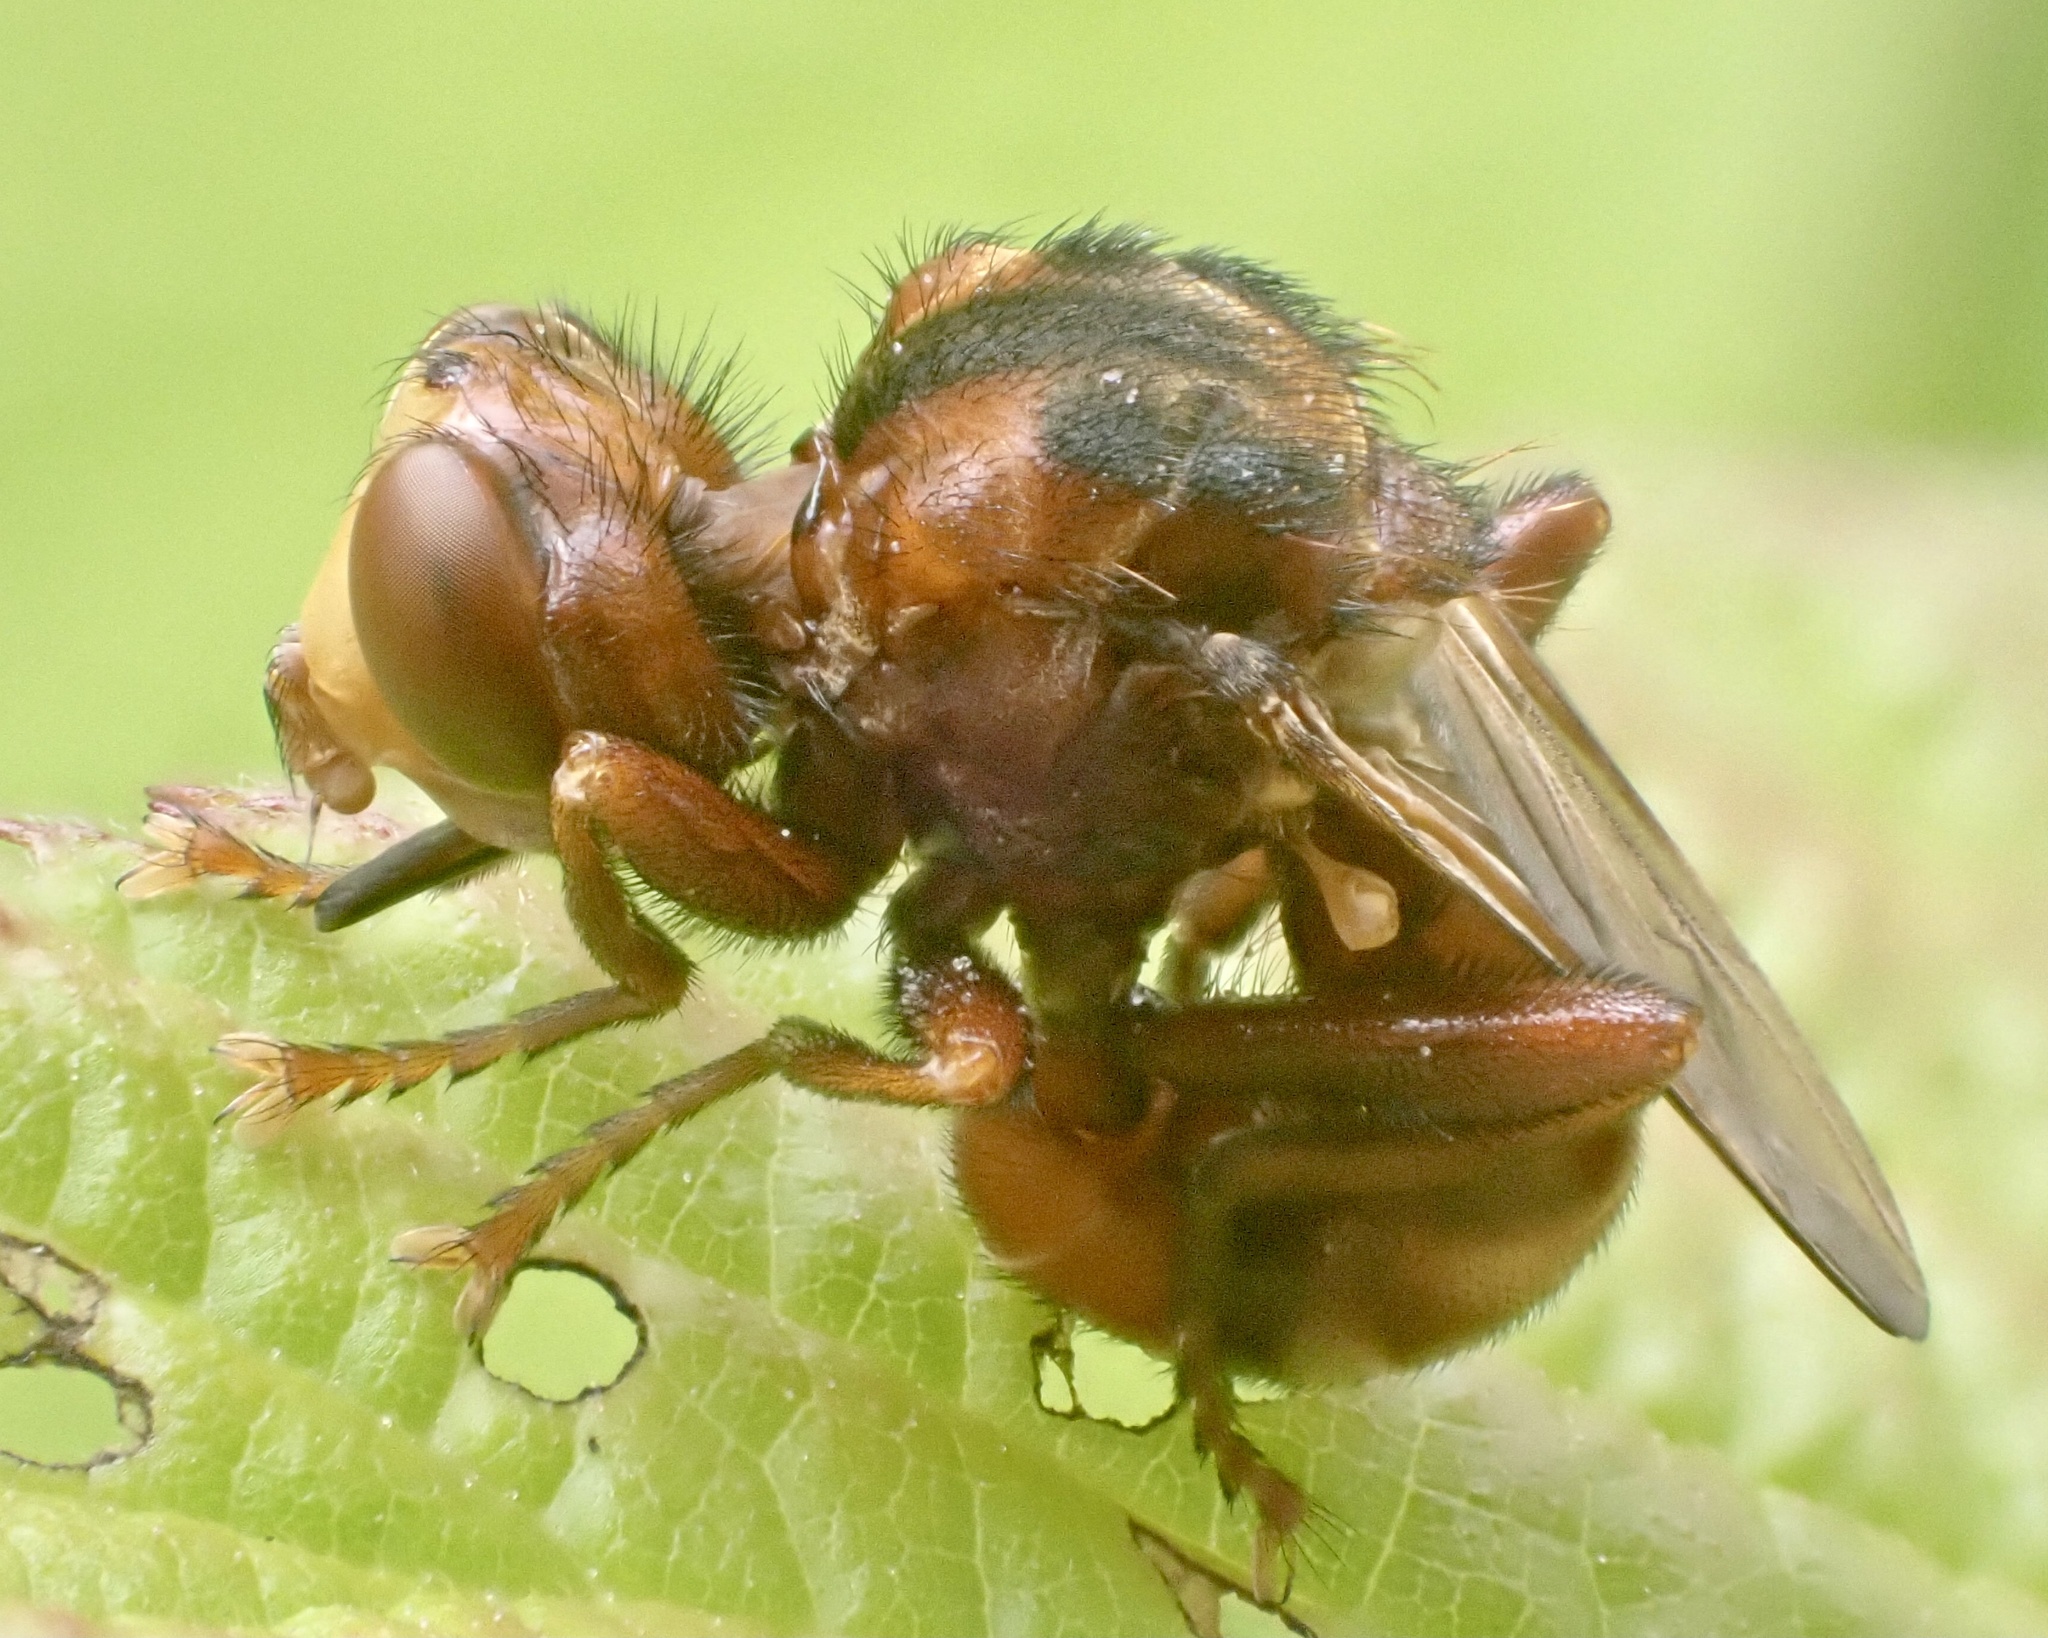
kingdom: Animalia
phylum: Arthropoda
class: Insecta
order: Diptera
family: Conopidae
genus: Sicus
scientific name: Sicus ferrugineus
